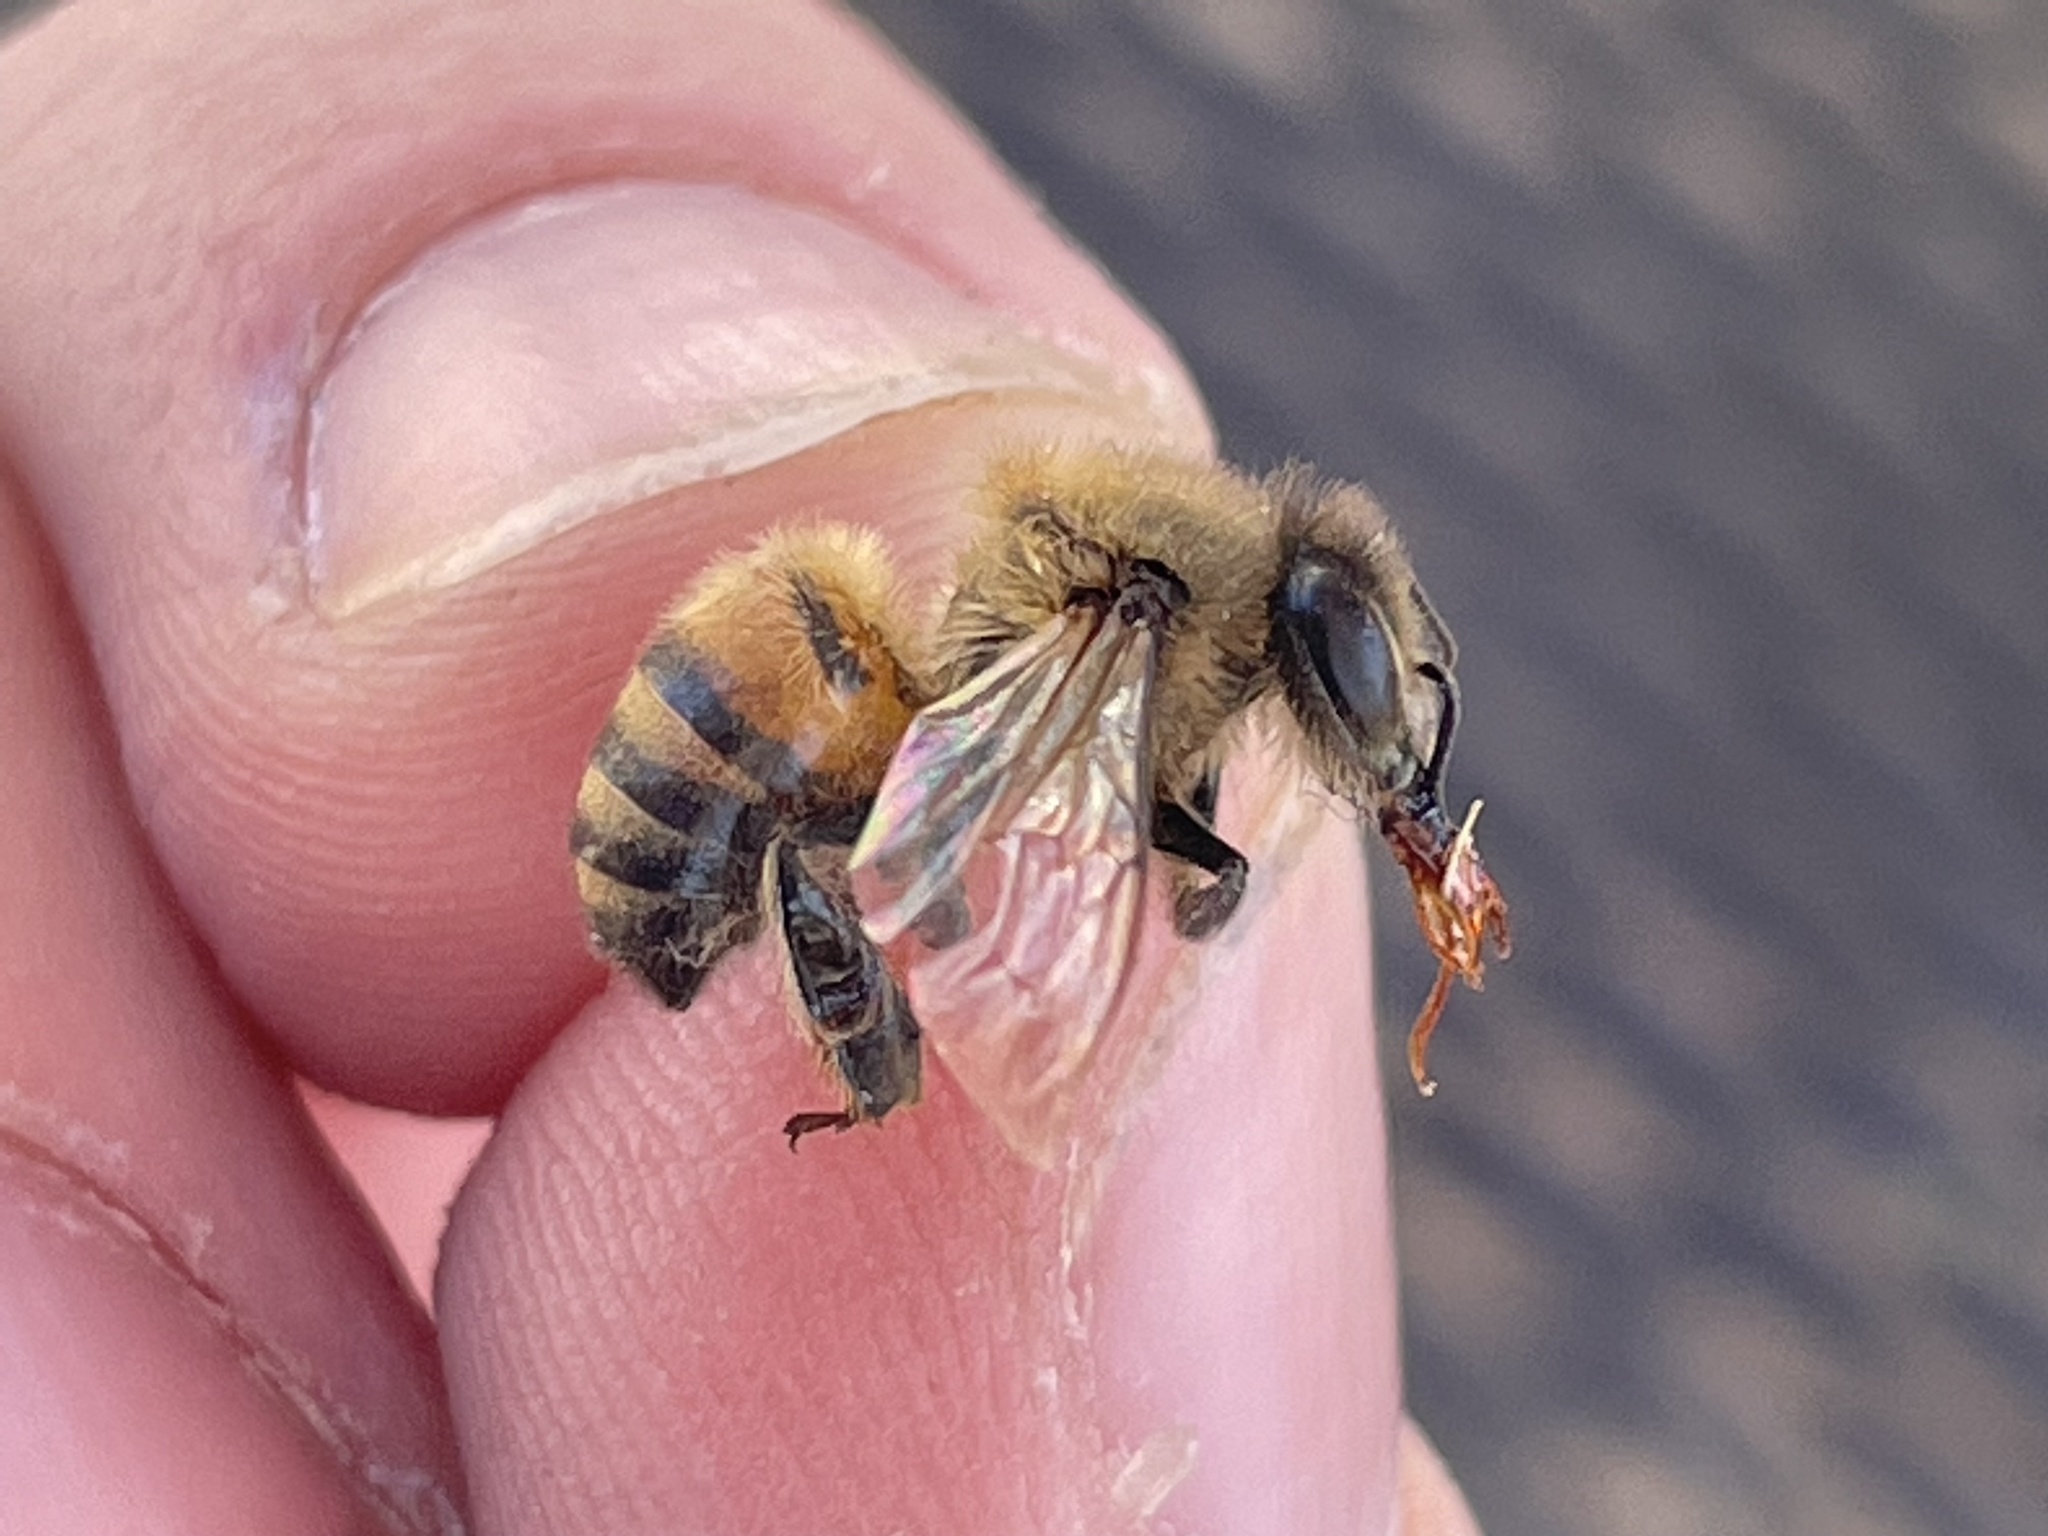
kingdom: Animalia
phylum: Arthropoda
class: Insecta
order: Hymenoptera
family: Apidae
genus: Apis
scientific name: Apis mellifera
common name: Honey bee
